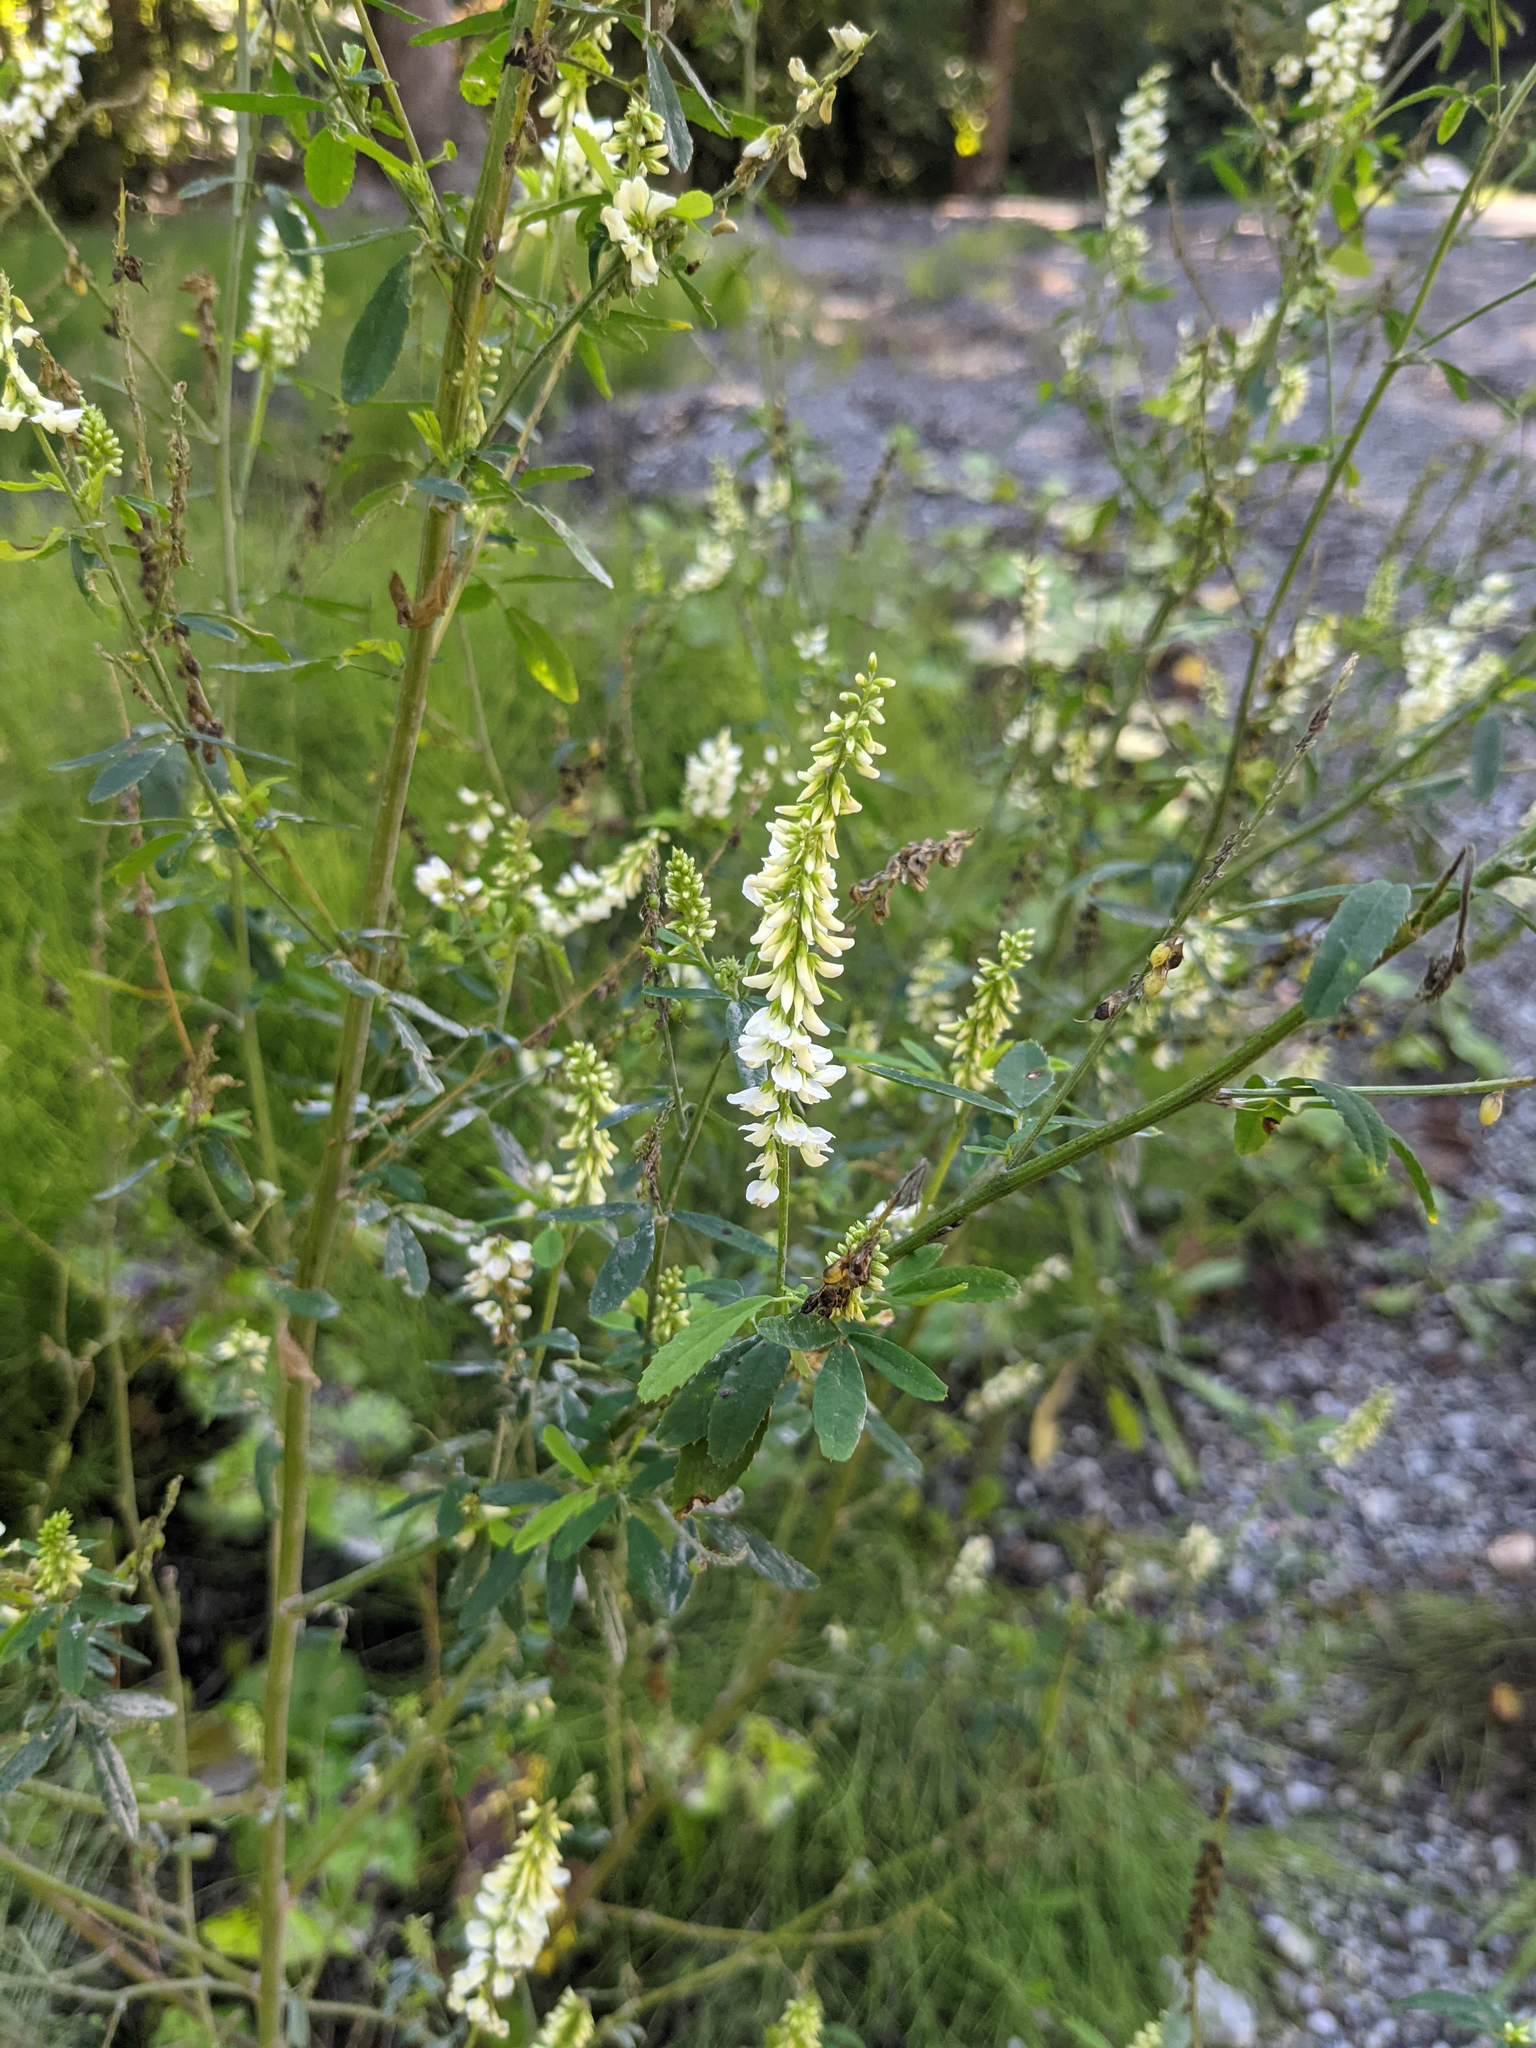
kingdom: Plantae
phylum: Tracheophyta
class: Magnoliopsida
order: Fabales
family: Fabaceae
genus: Melilotus
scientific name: Melilotus albus
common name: White melilot
